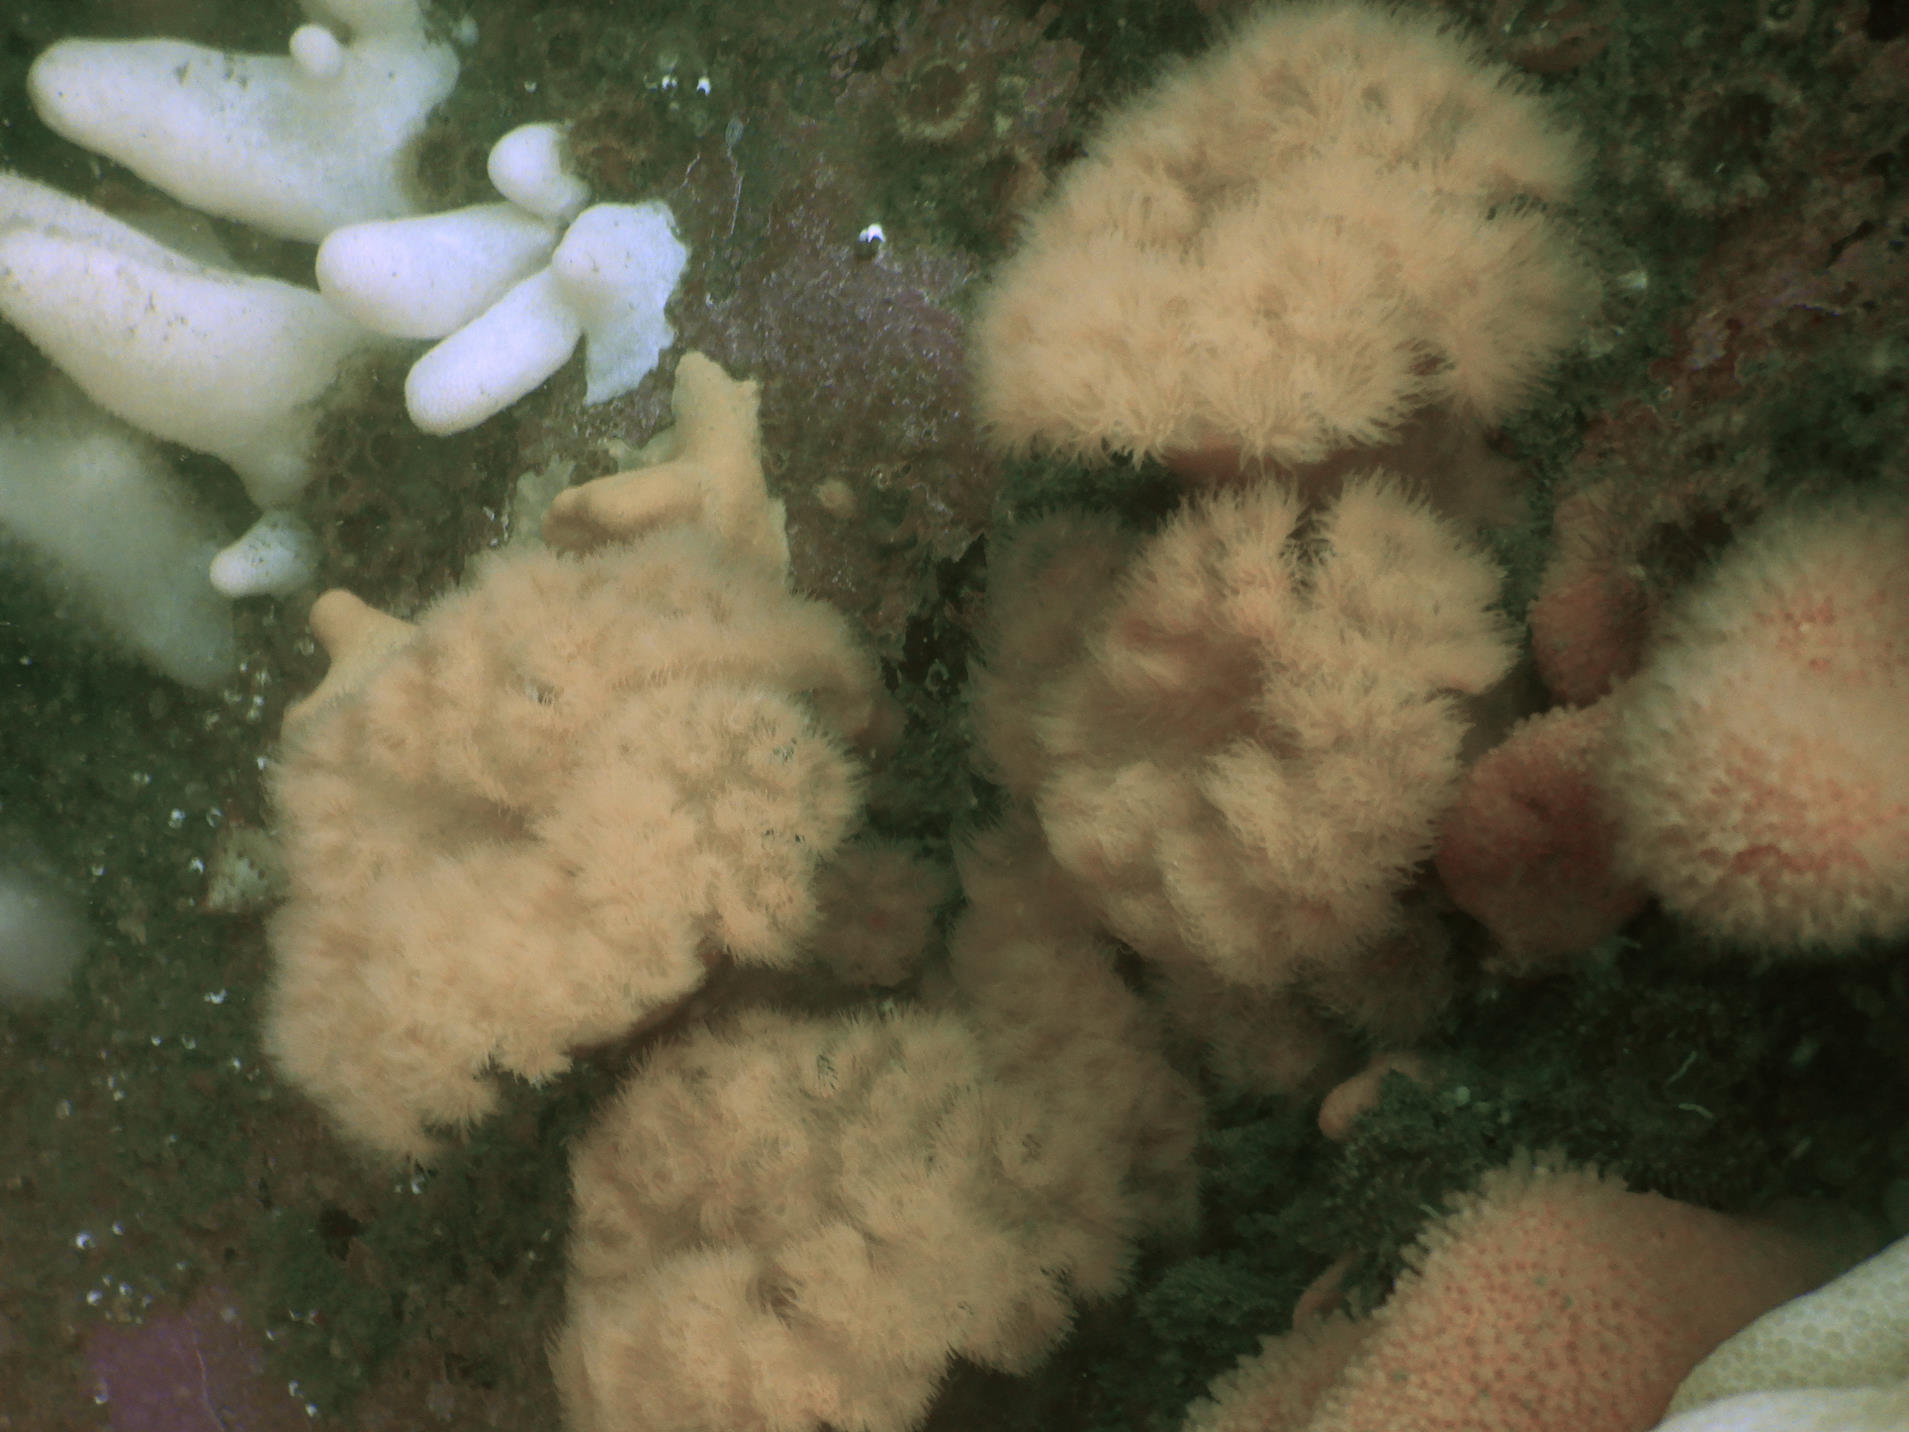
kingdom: Animalia
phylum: Cnidaria
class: Anthozoa
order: Actiniaria
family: Metridiidae
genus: Metridium
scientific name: Metridium senile
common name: Clonal plumose anemone
